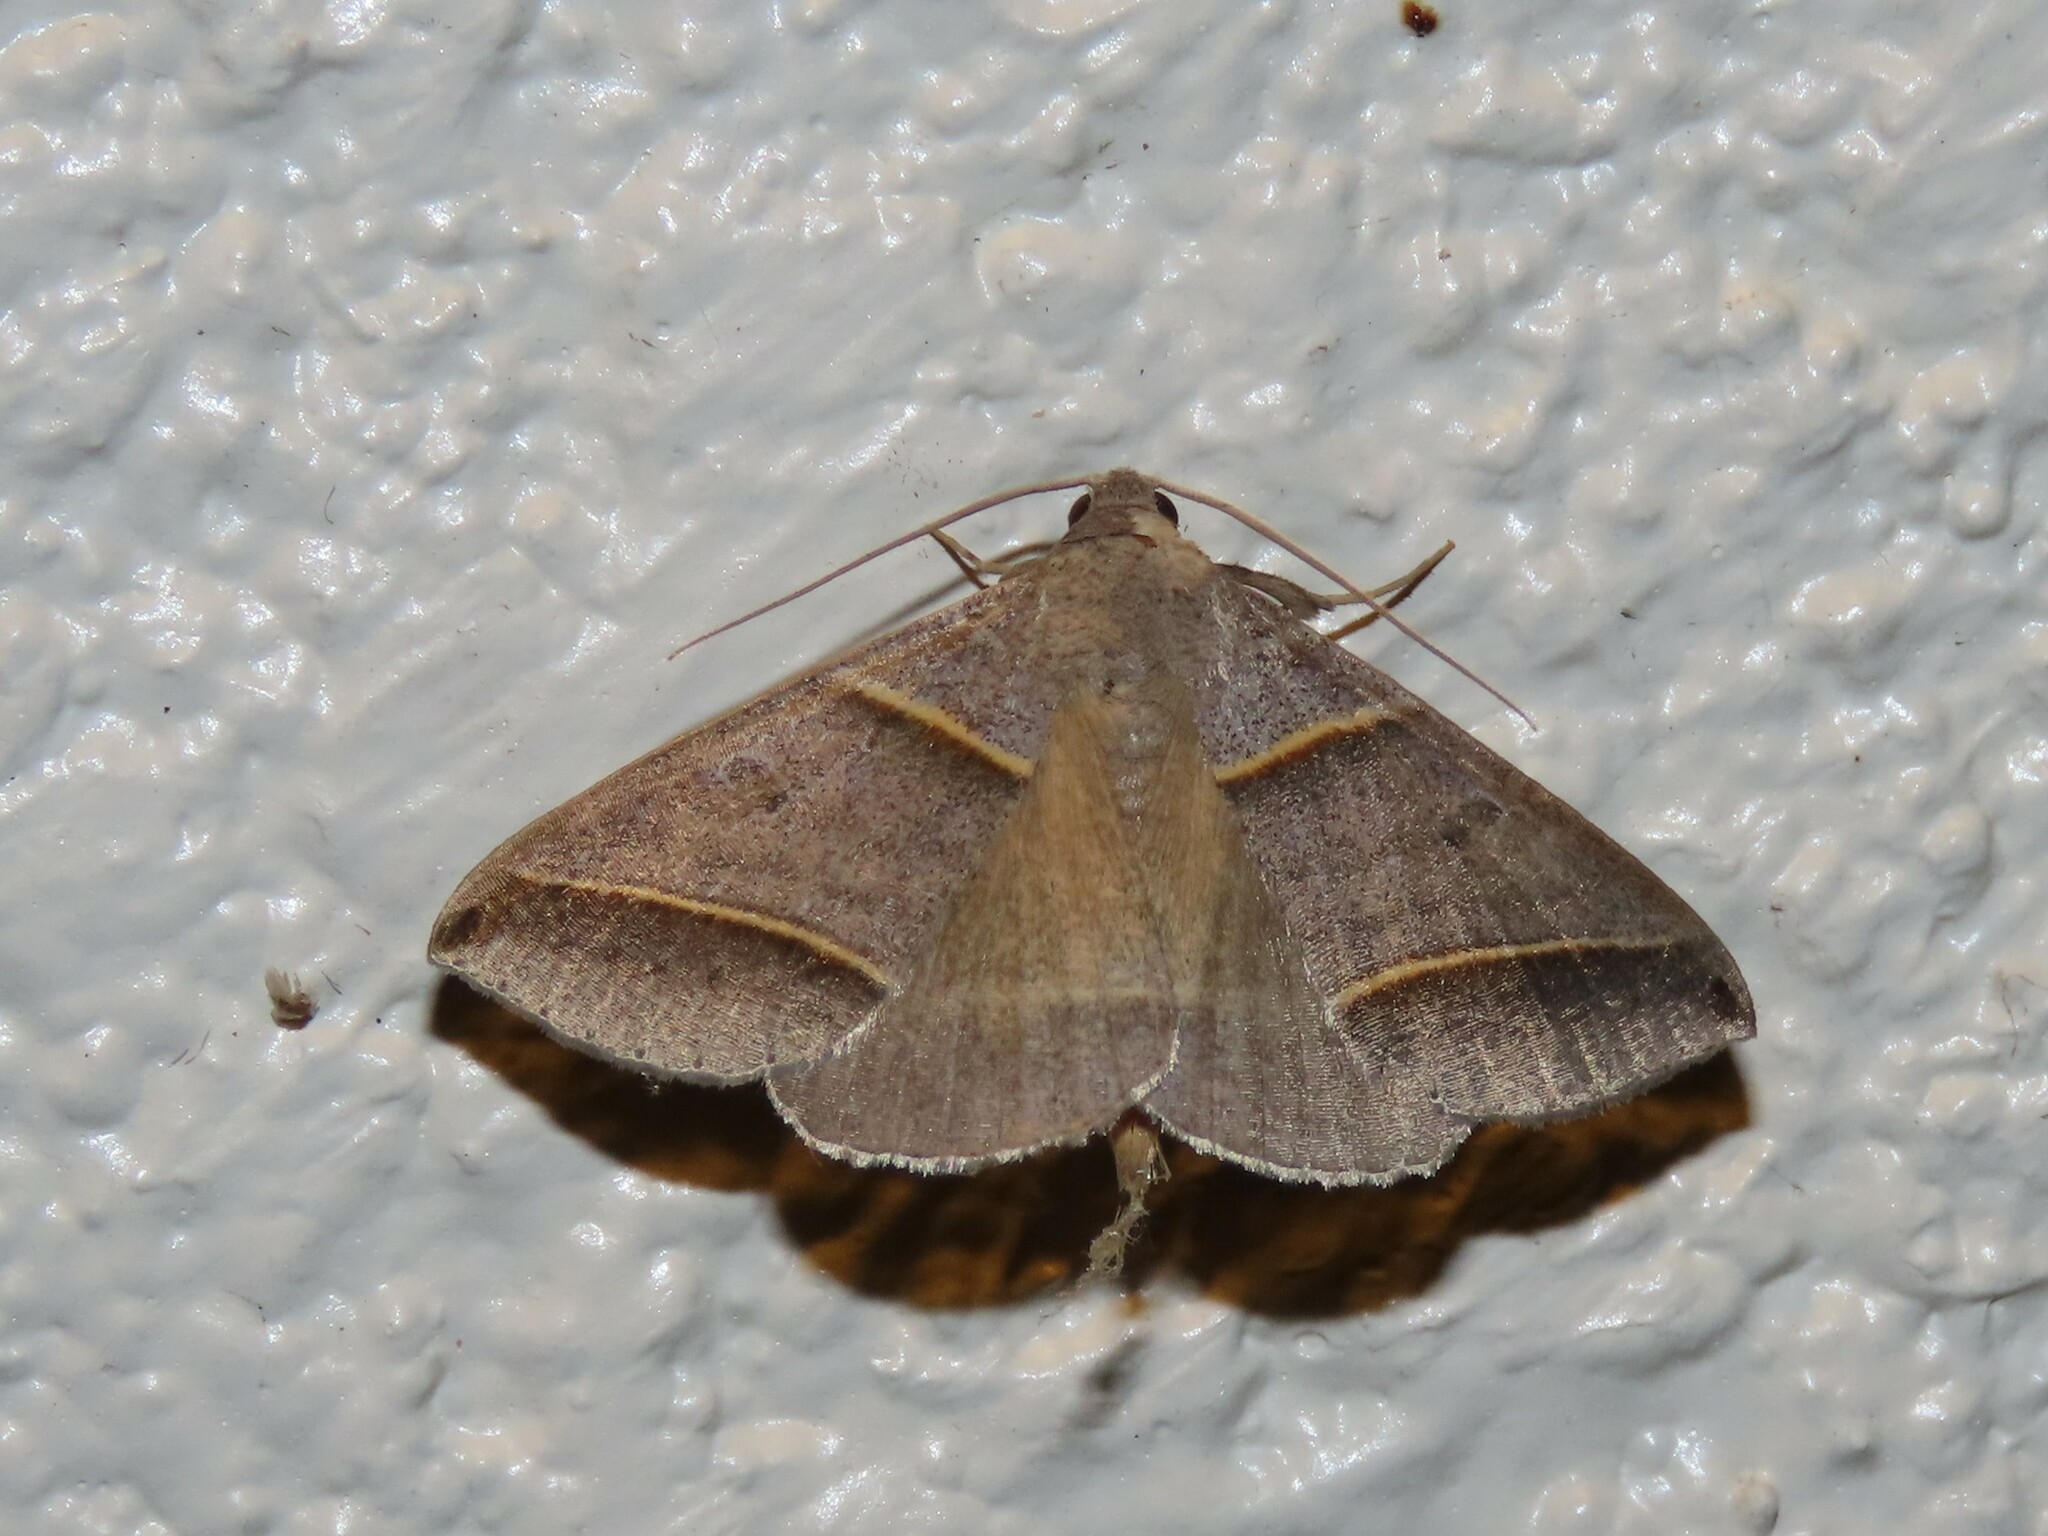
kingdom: Animalia
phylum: Arthropoda
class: Insecta
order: Lepidoptera
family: Erebidae
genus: Ptichodis
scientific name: Ptichodis vinculum
